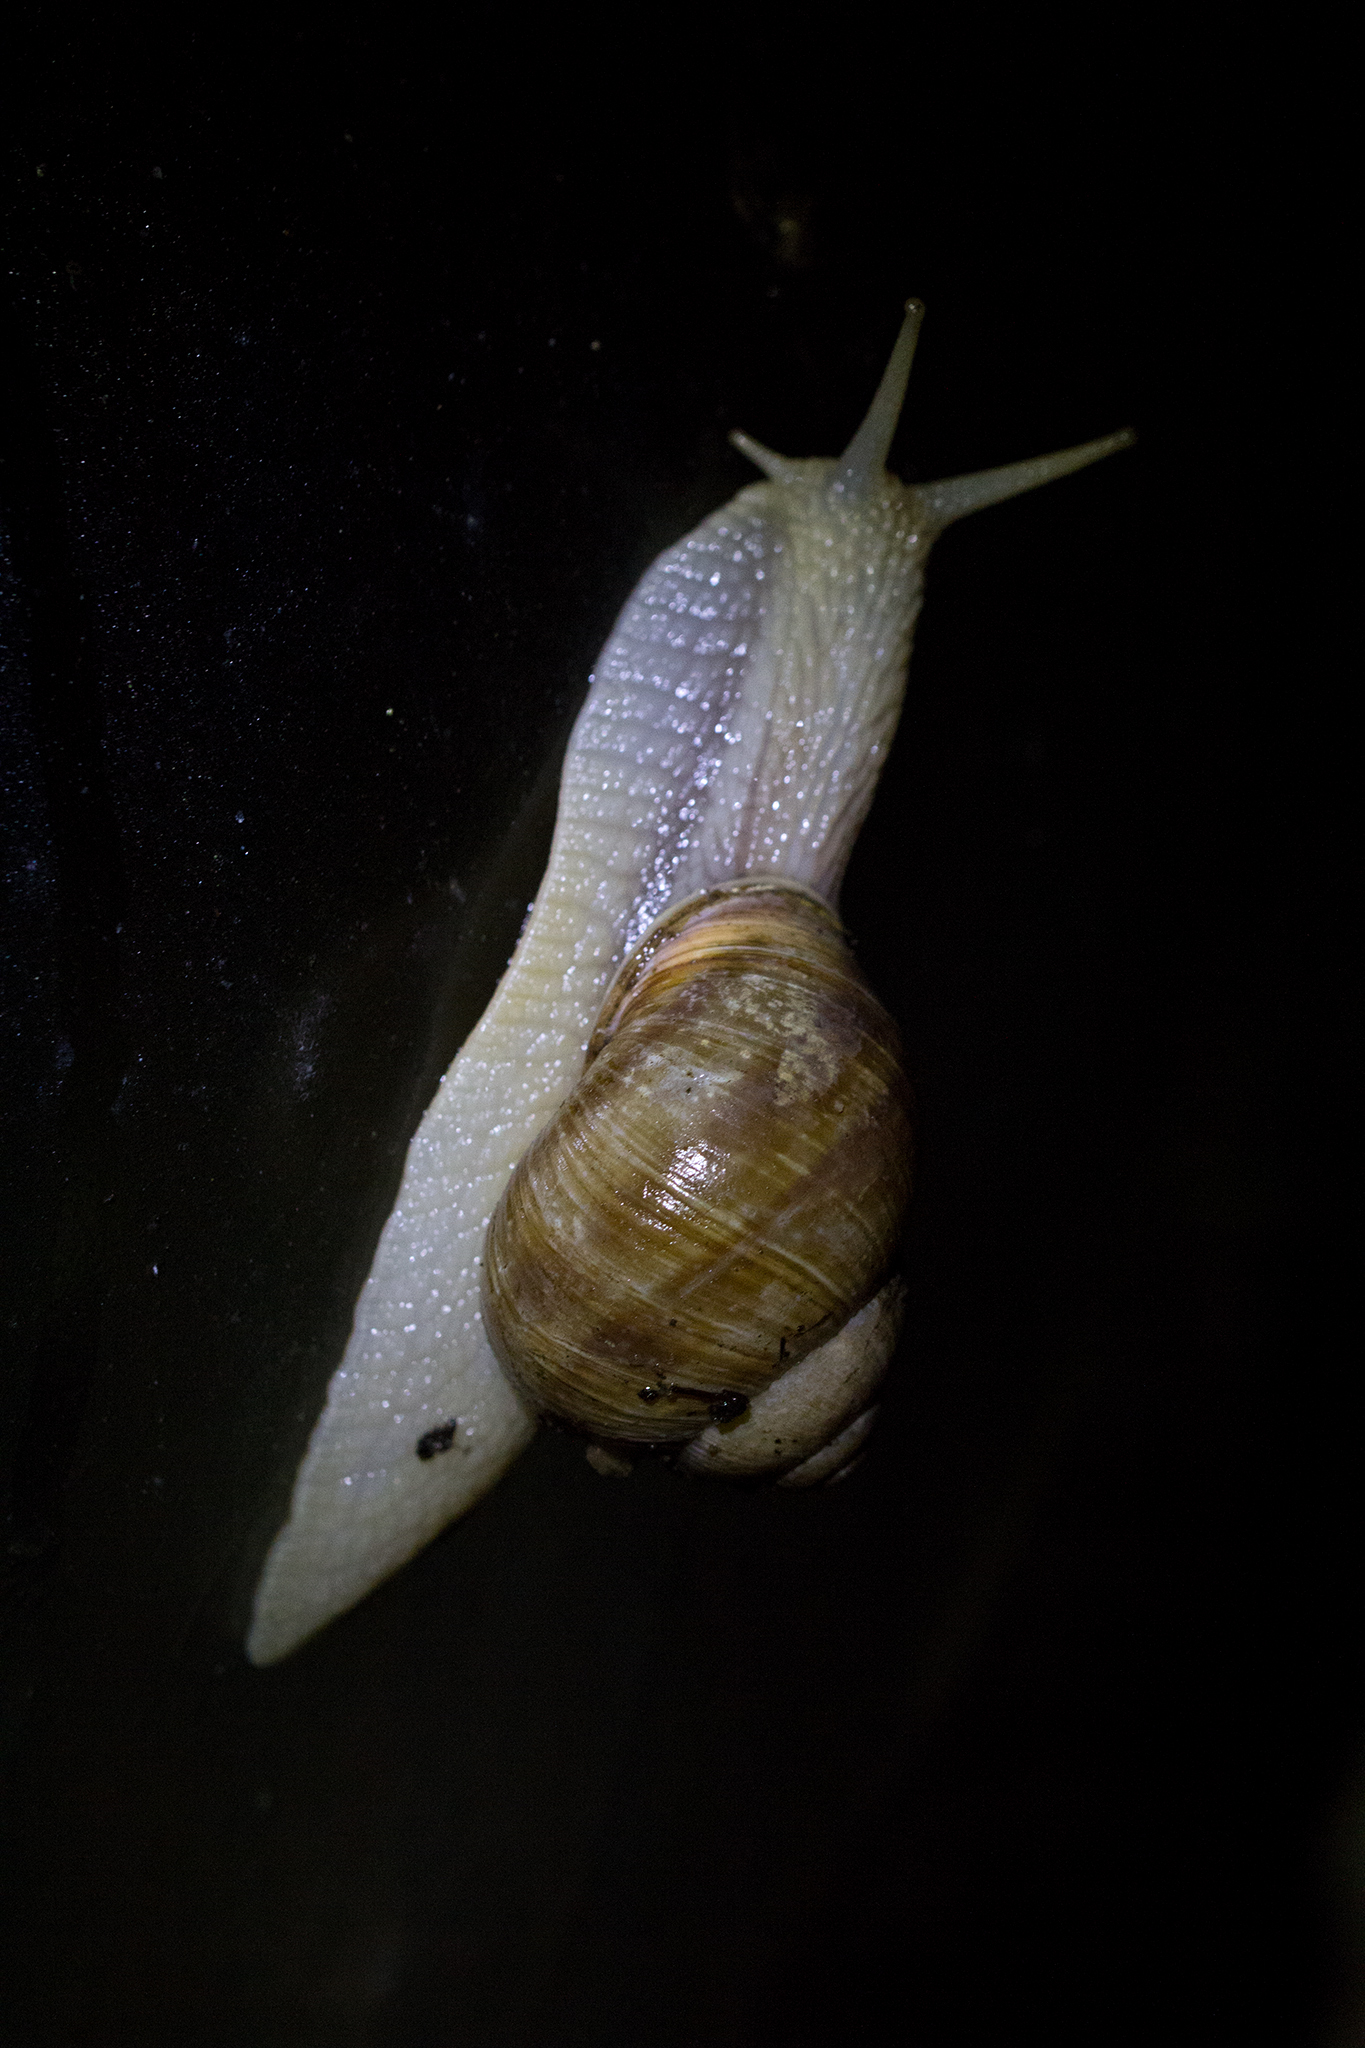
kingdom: Animalia
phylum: Mollusca
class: Gastropoda
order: Stylommatophora
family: Helicidae
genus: Helix
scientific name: Helix pomatia
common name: Roman snail
